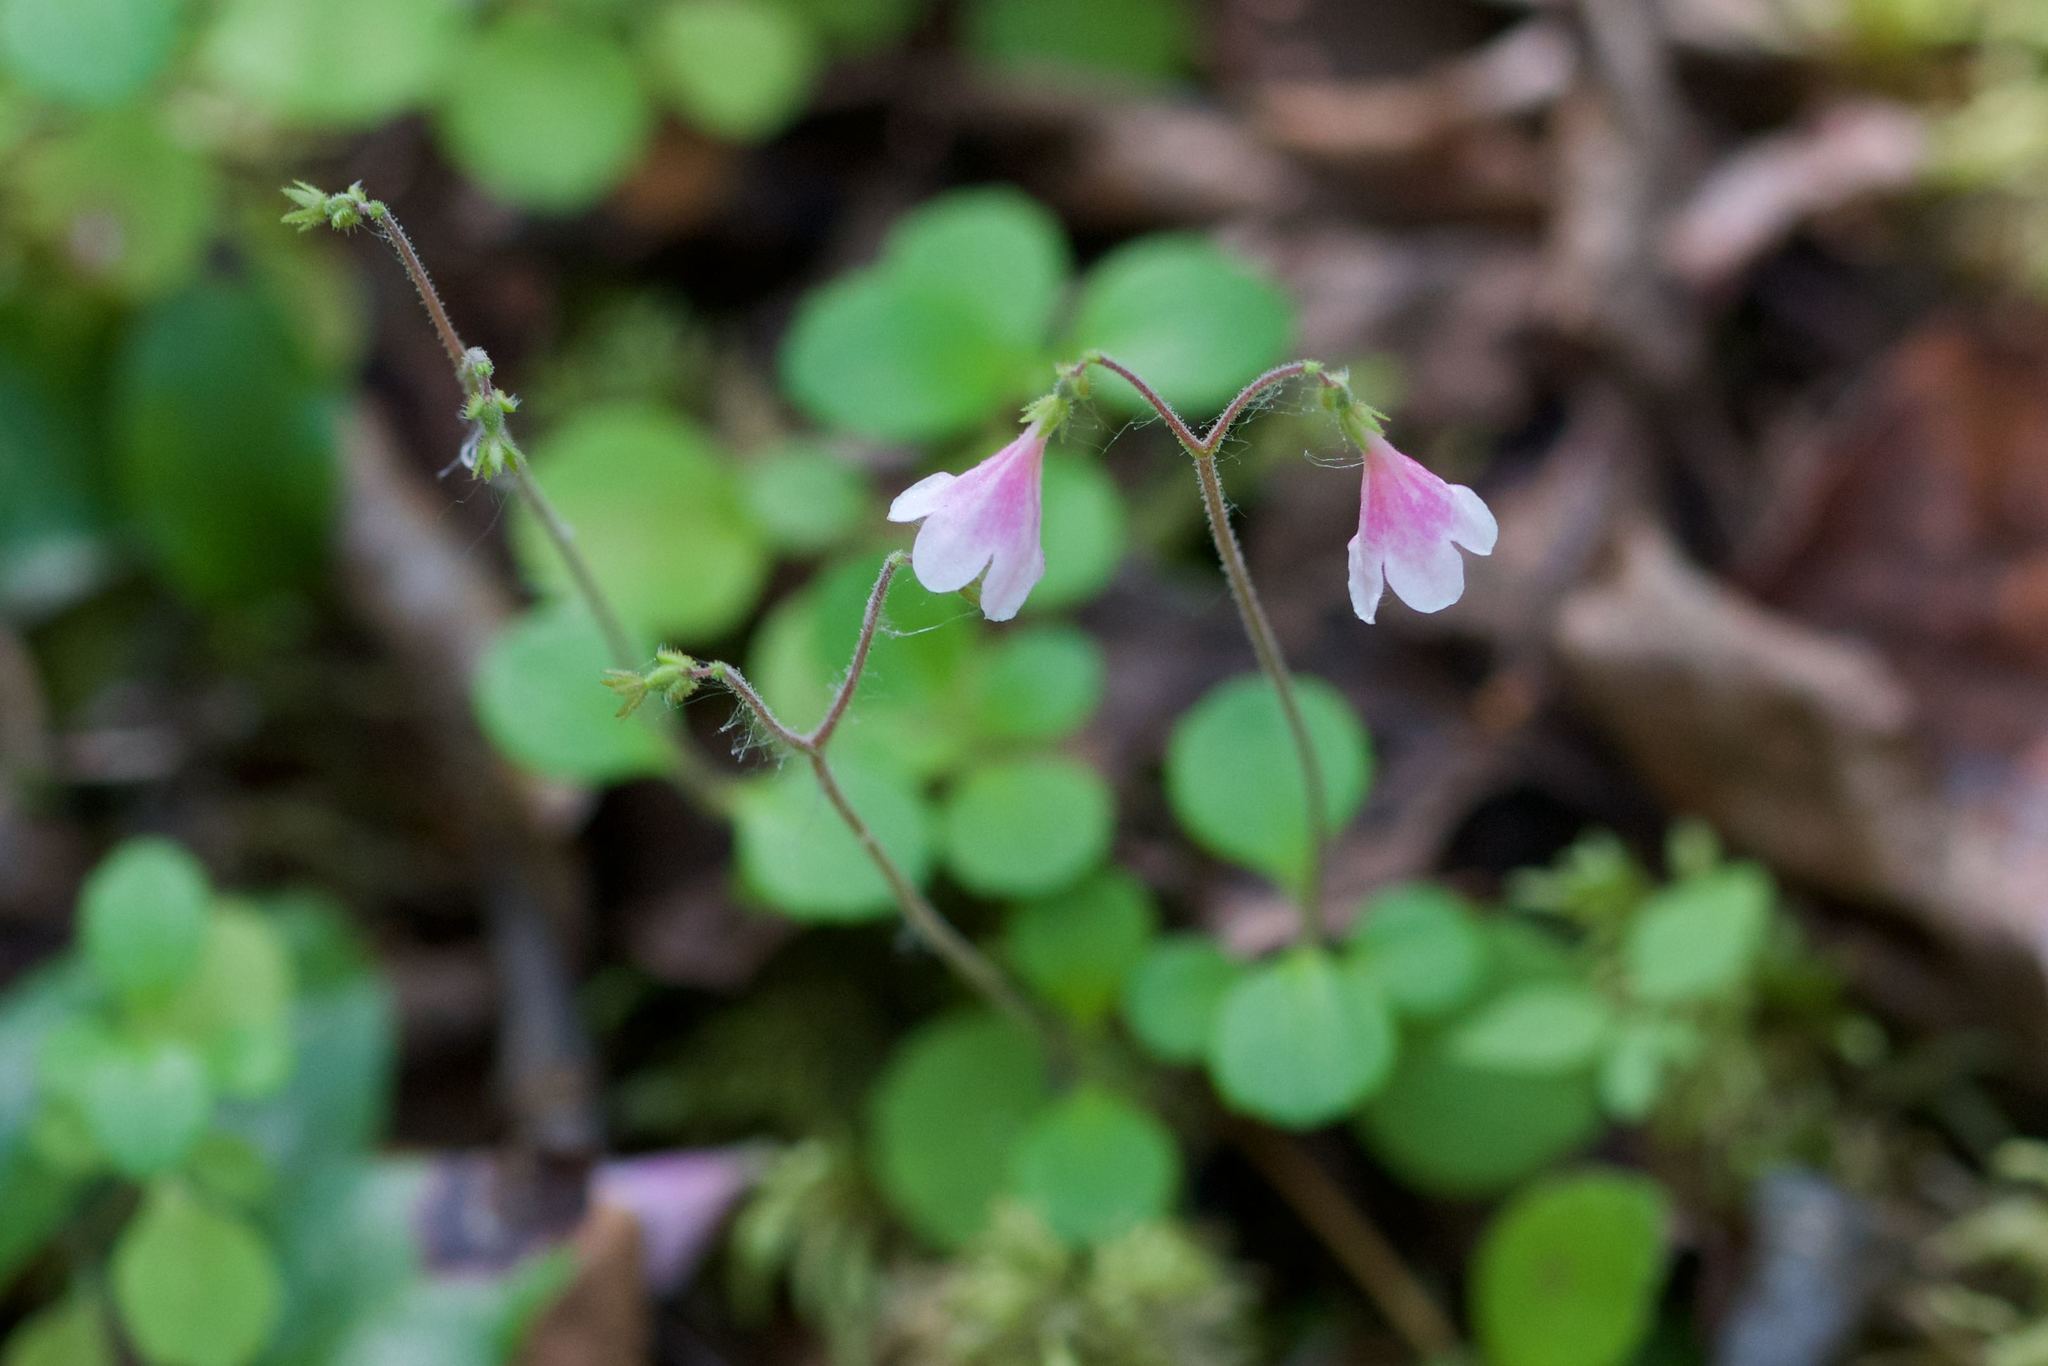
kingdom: Plantae
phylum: Tracheophyta
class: Magnoliopsida
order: Dipsacales
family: Caprifoliaceae
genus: Linnaea
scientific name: Linnaea borealis
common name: Twinflower
